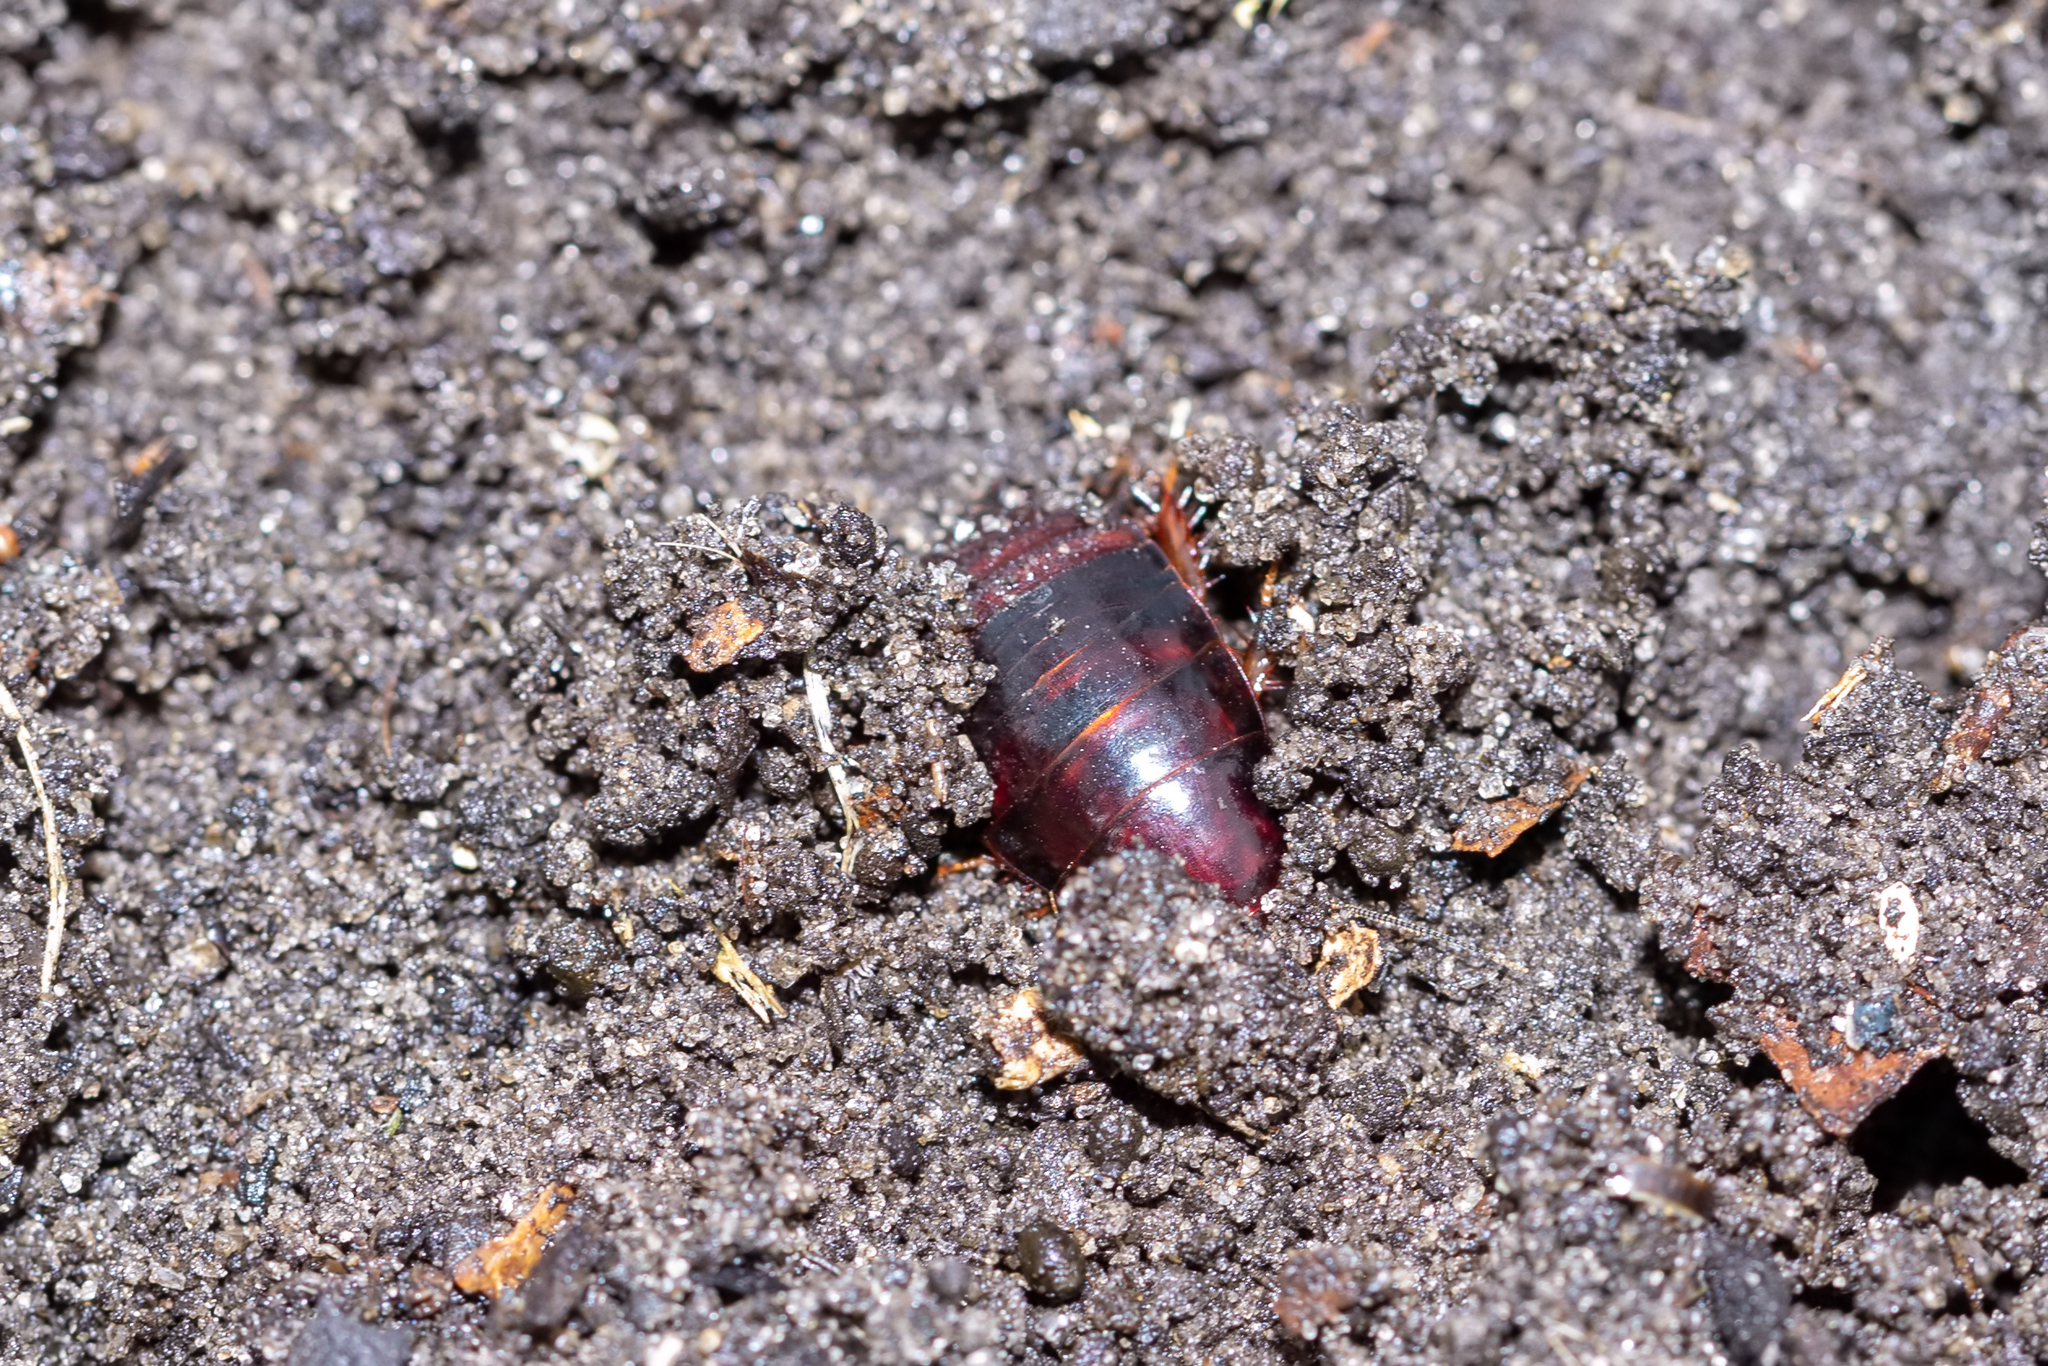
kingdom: Animalia
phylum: Arthropoda
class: Insecta
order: Blattodea
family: Blaberidae
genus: Pycnoscelus
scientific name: Pycnoscelus surinamensis
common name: Surinam cockroach
